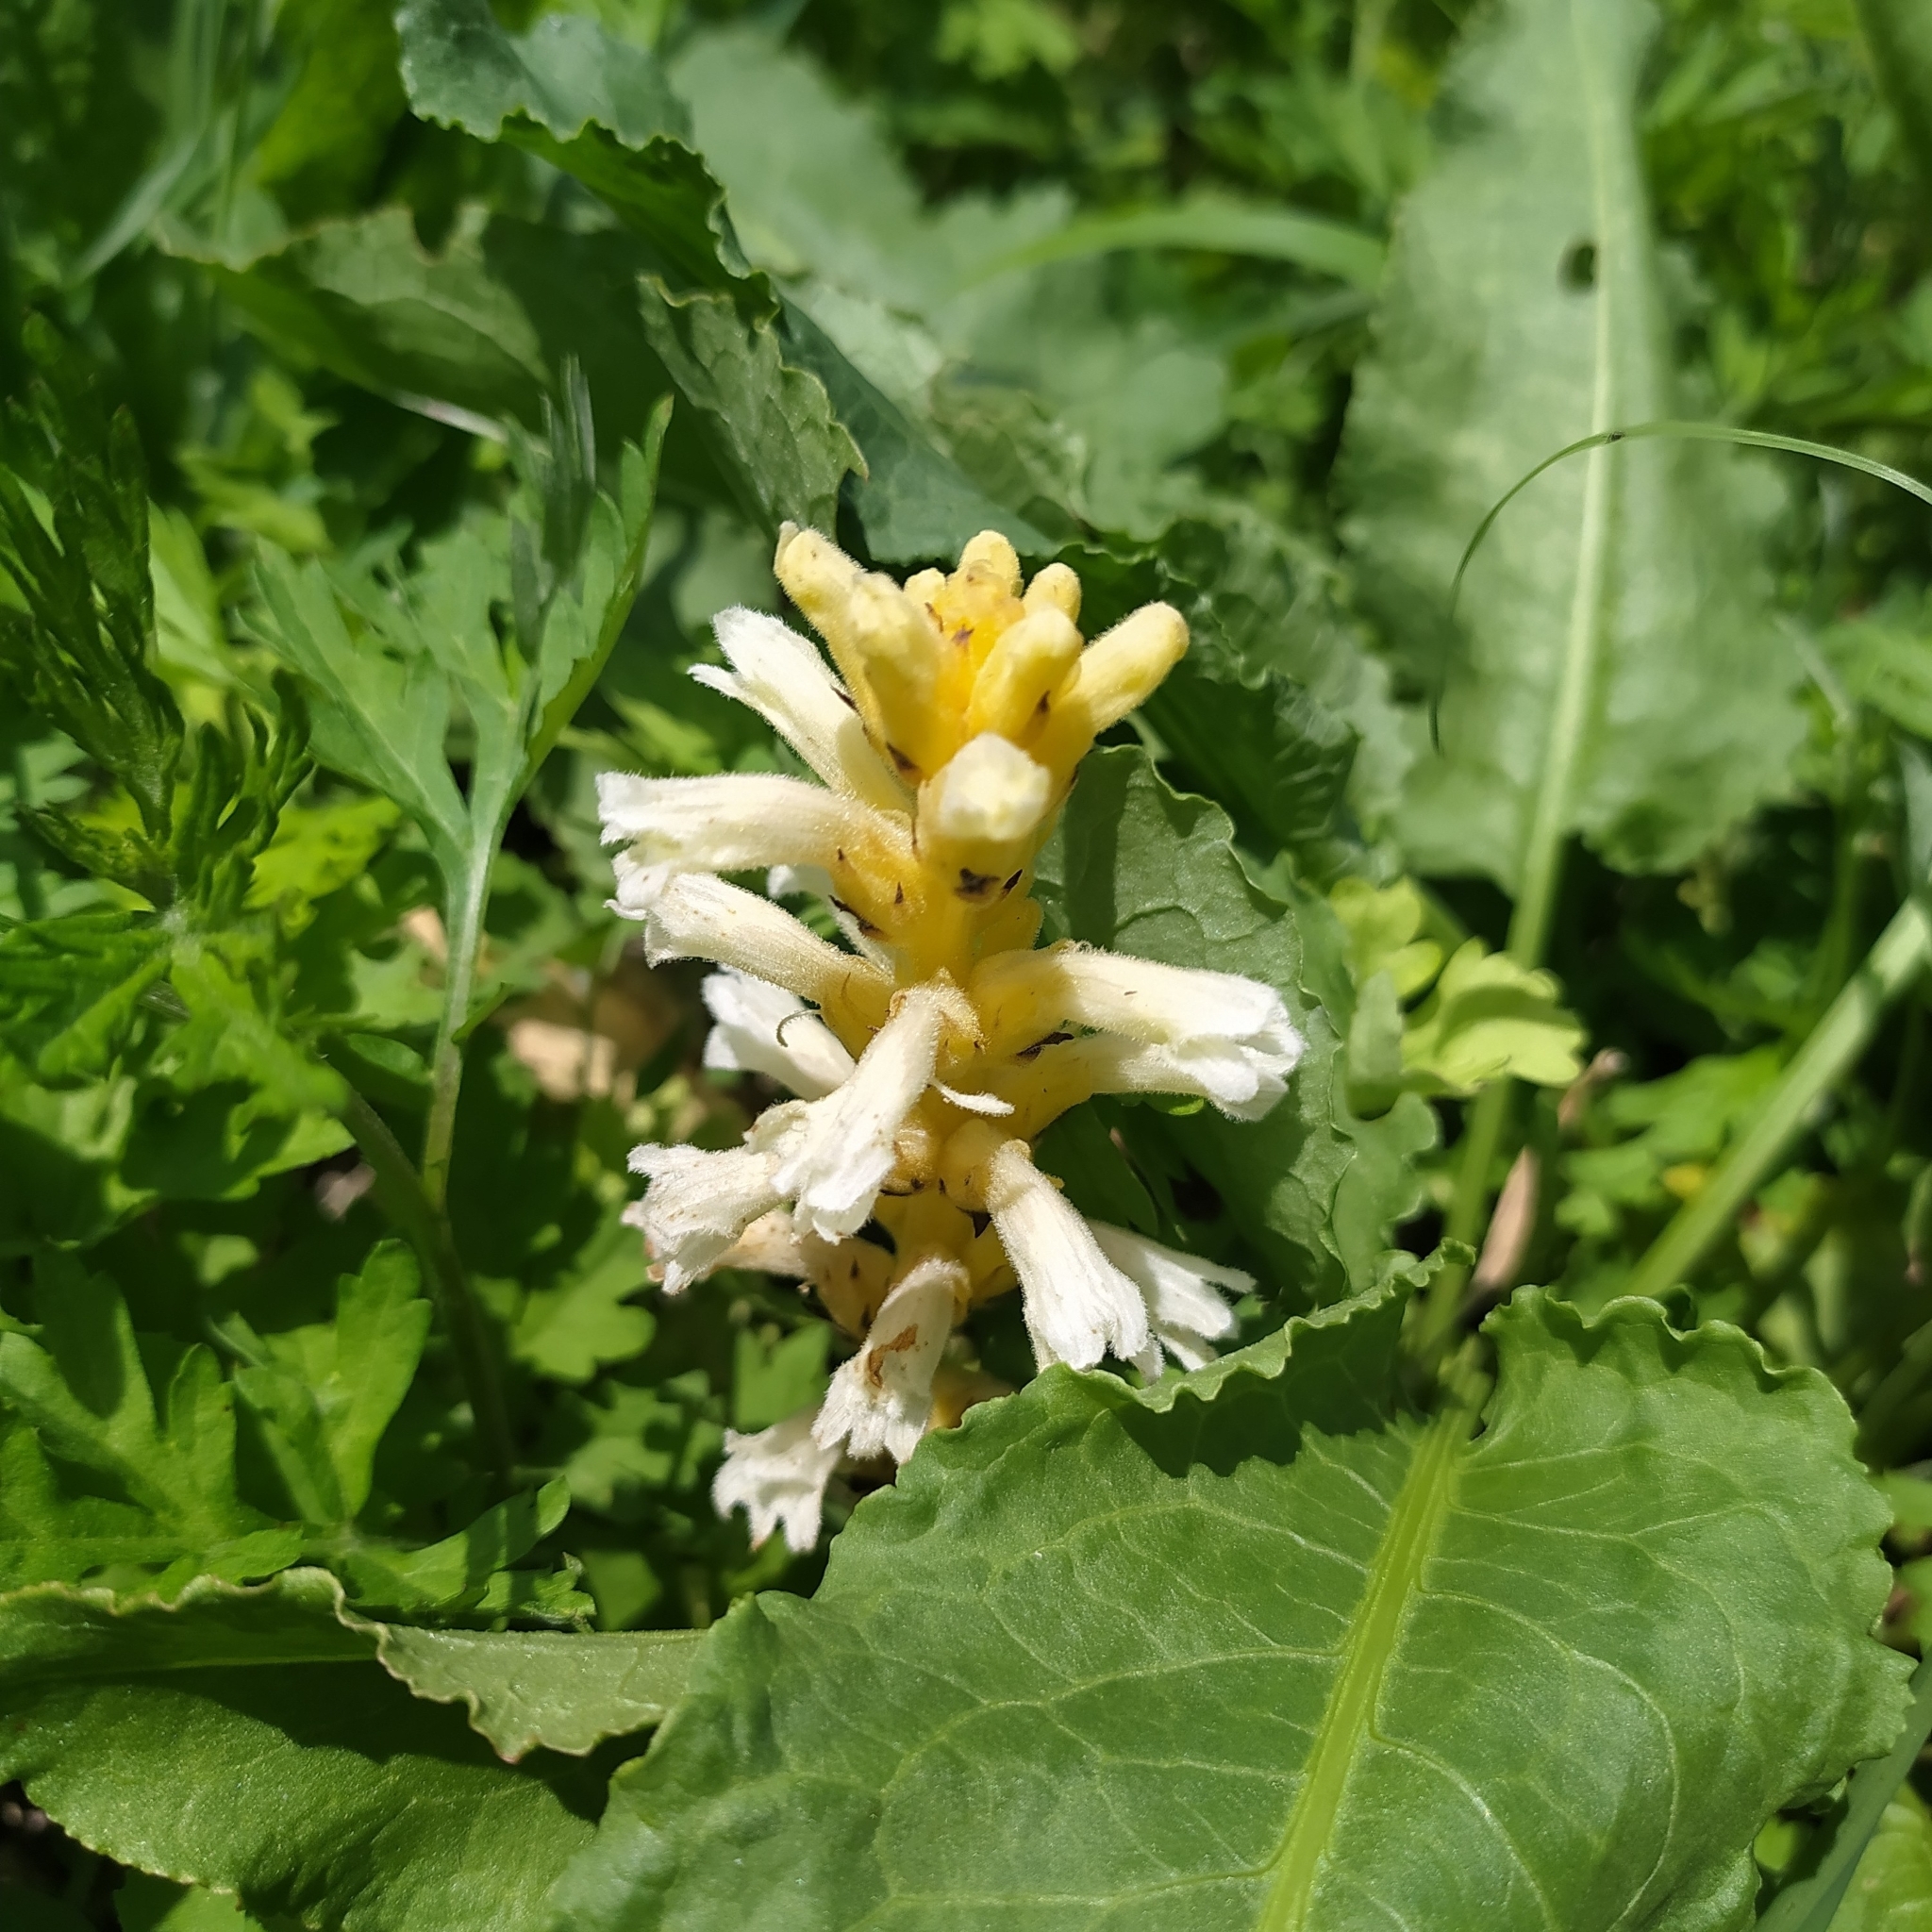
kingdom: Plantae
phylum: Tracheophyta
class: Magnoliopsida
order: Lamiales
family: Orobanchaceae
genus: Phelipanche
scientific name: Phelipanche purpurea
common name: Purple broomrape
